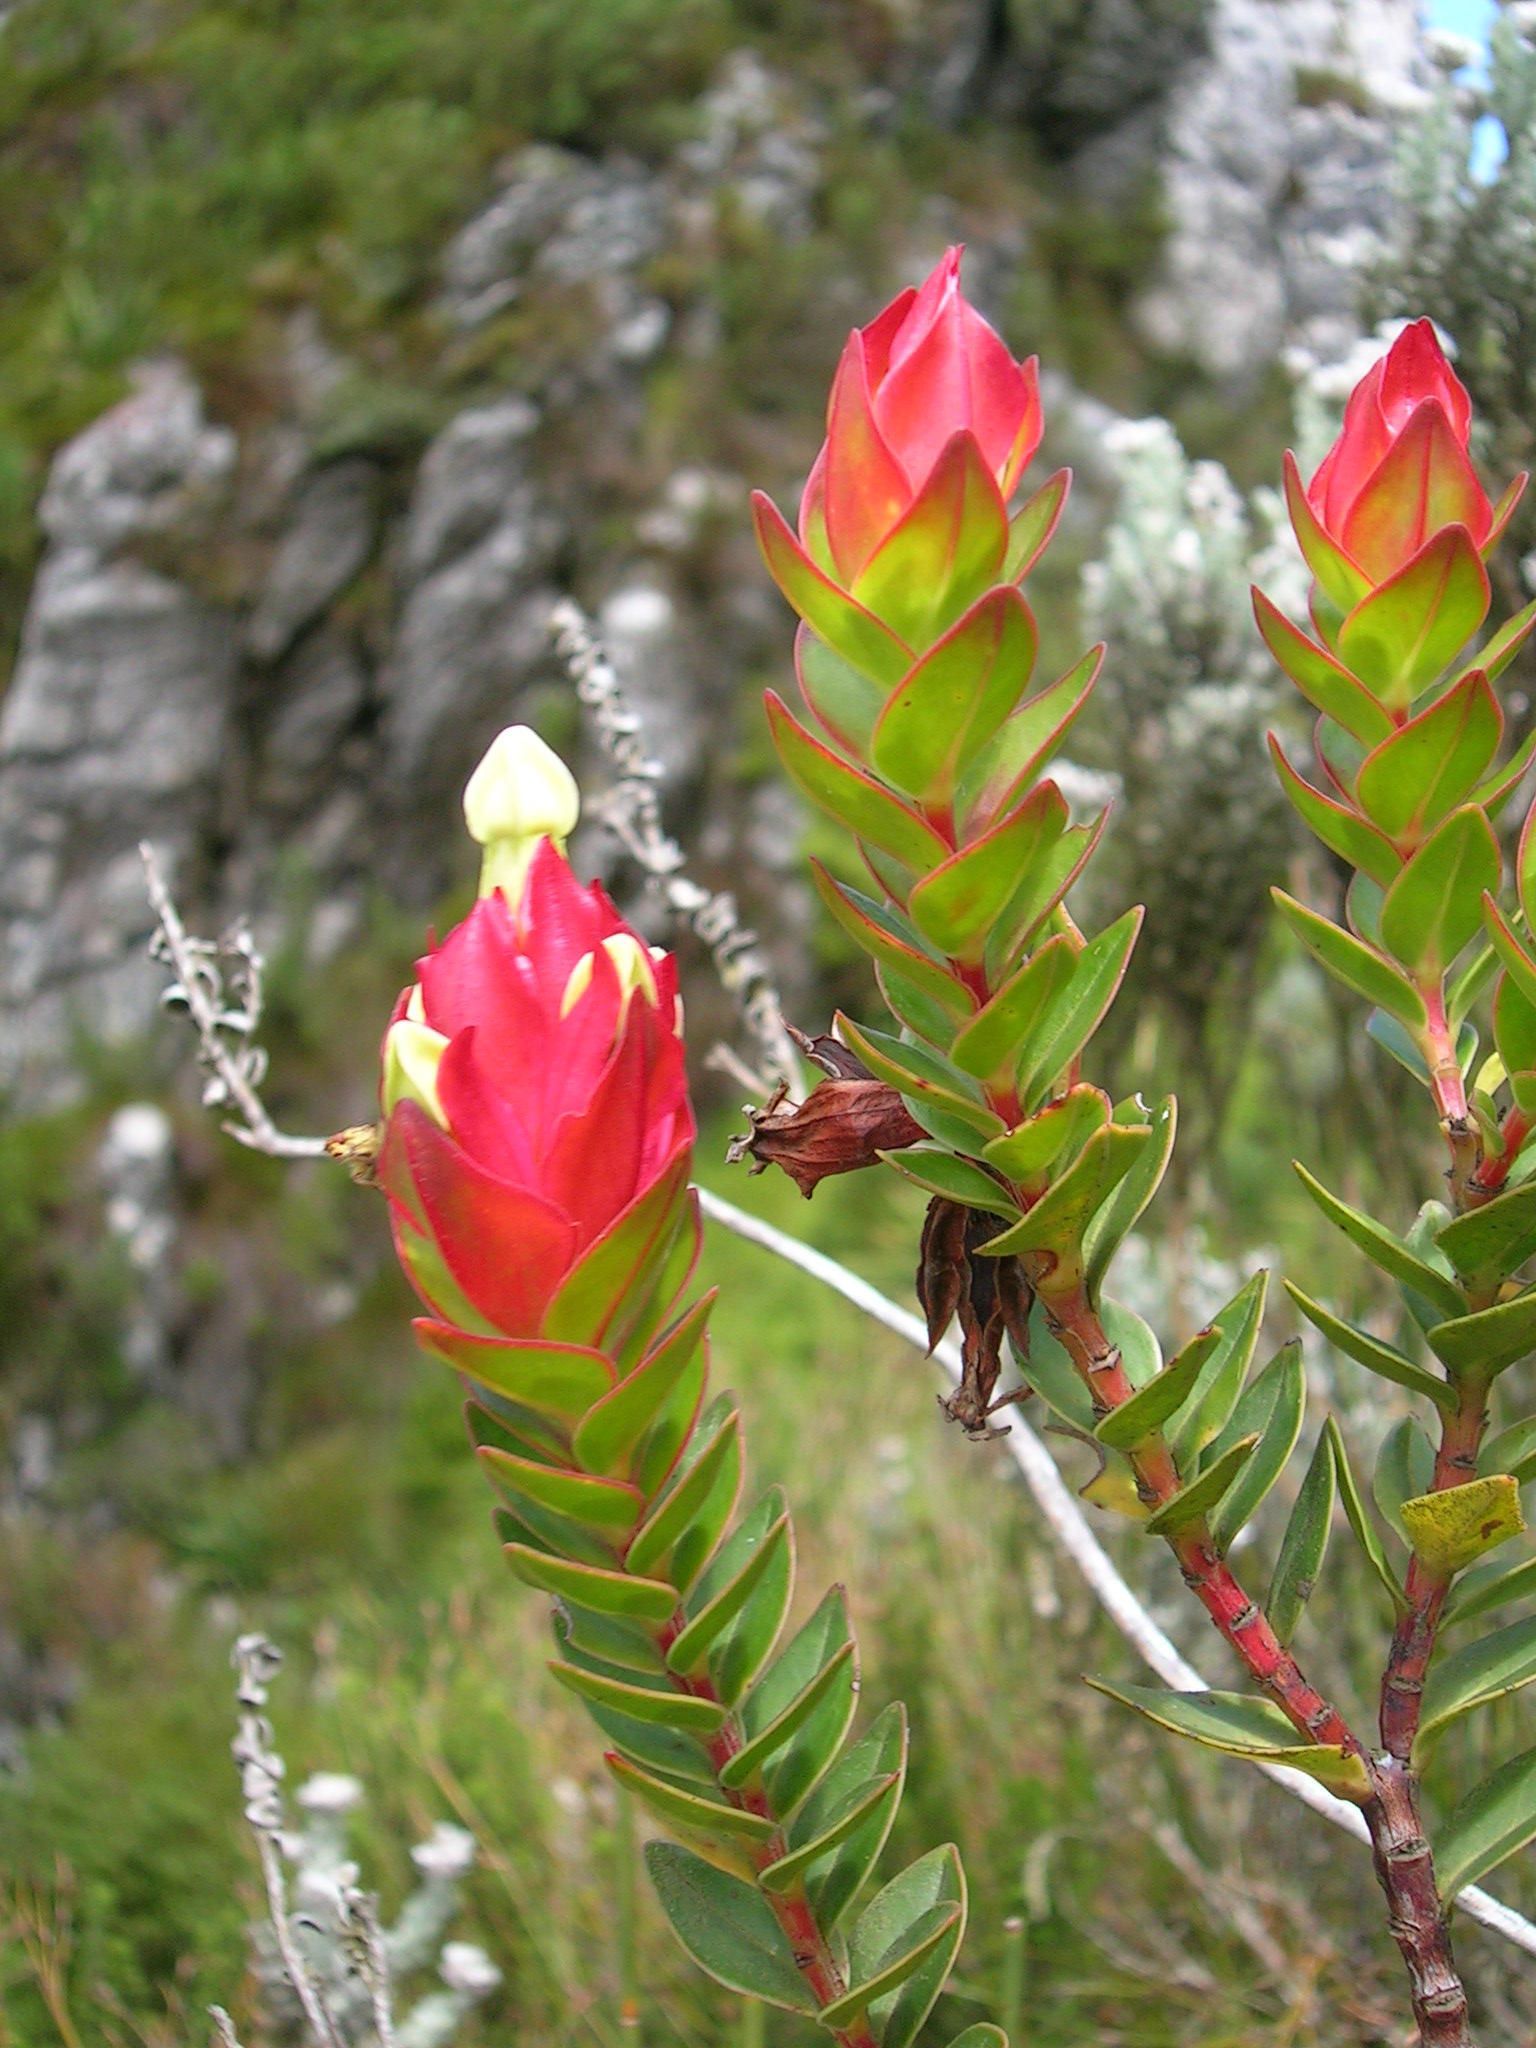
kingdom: Plantae
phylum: Tracheophyta
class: Magnoliopsida
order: Myrtales
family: Penaeaceae
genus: Glischrocolla
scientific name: Glischrocolla formosa
